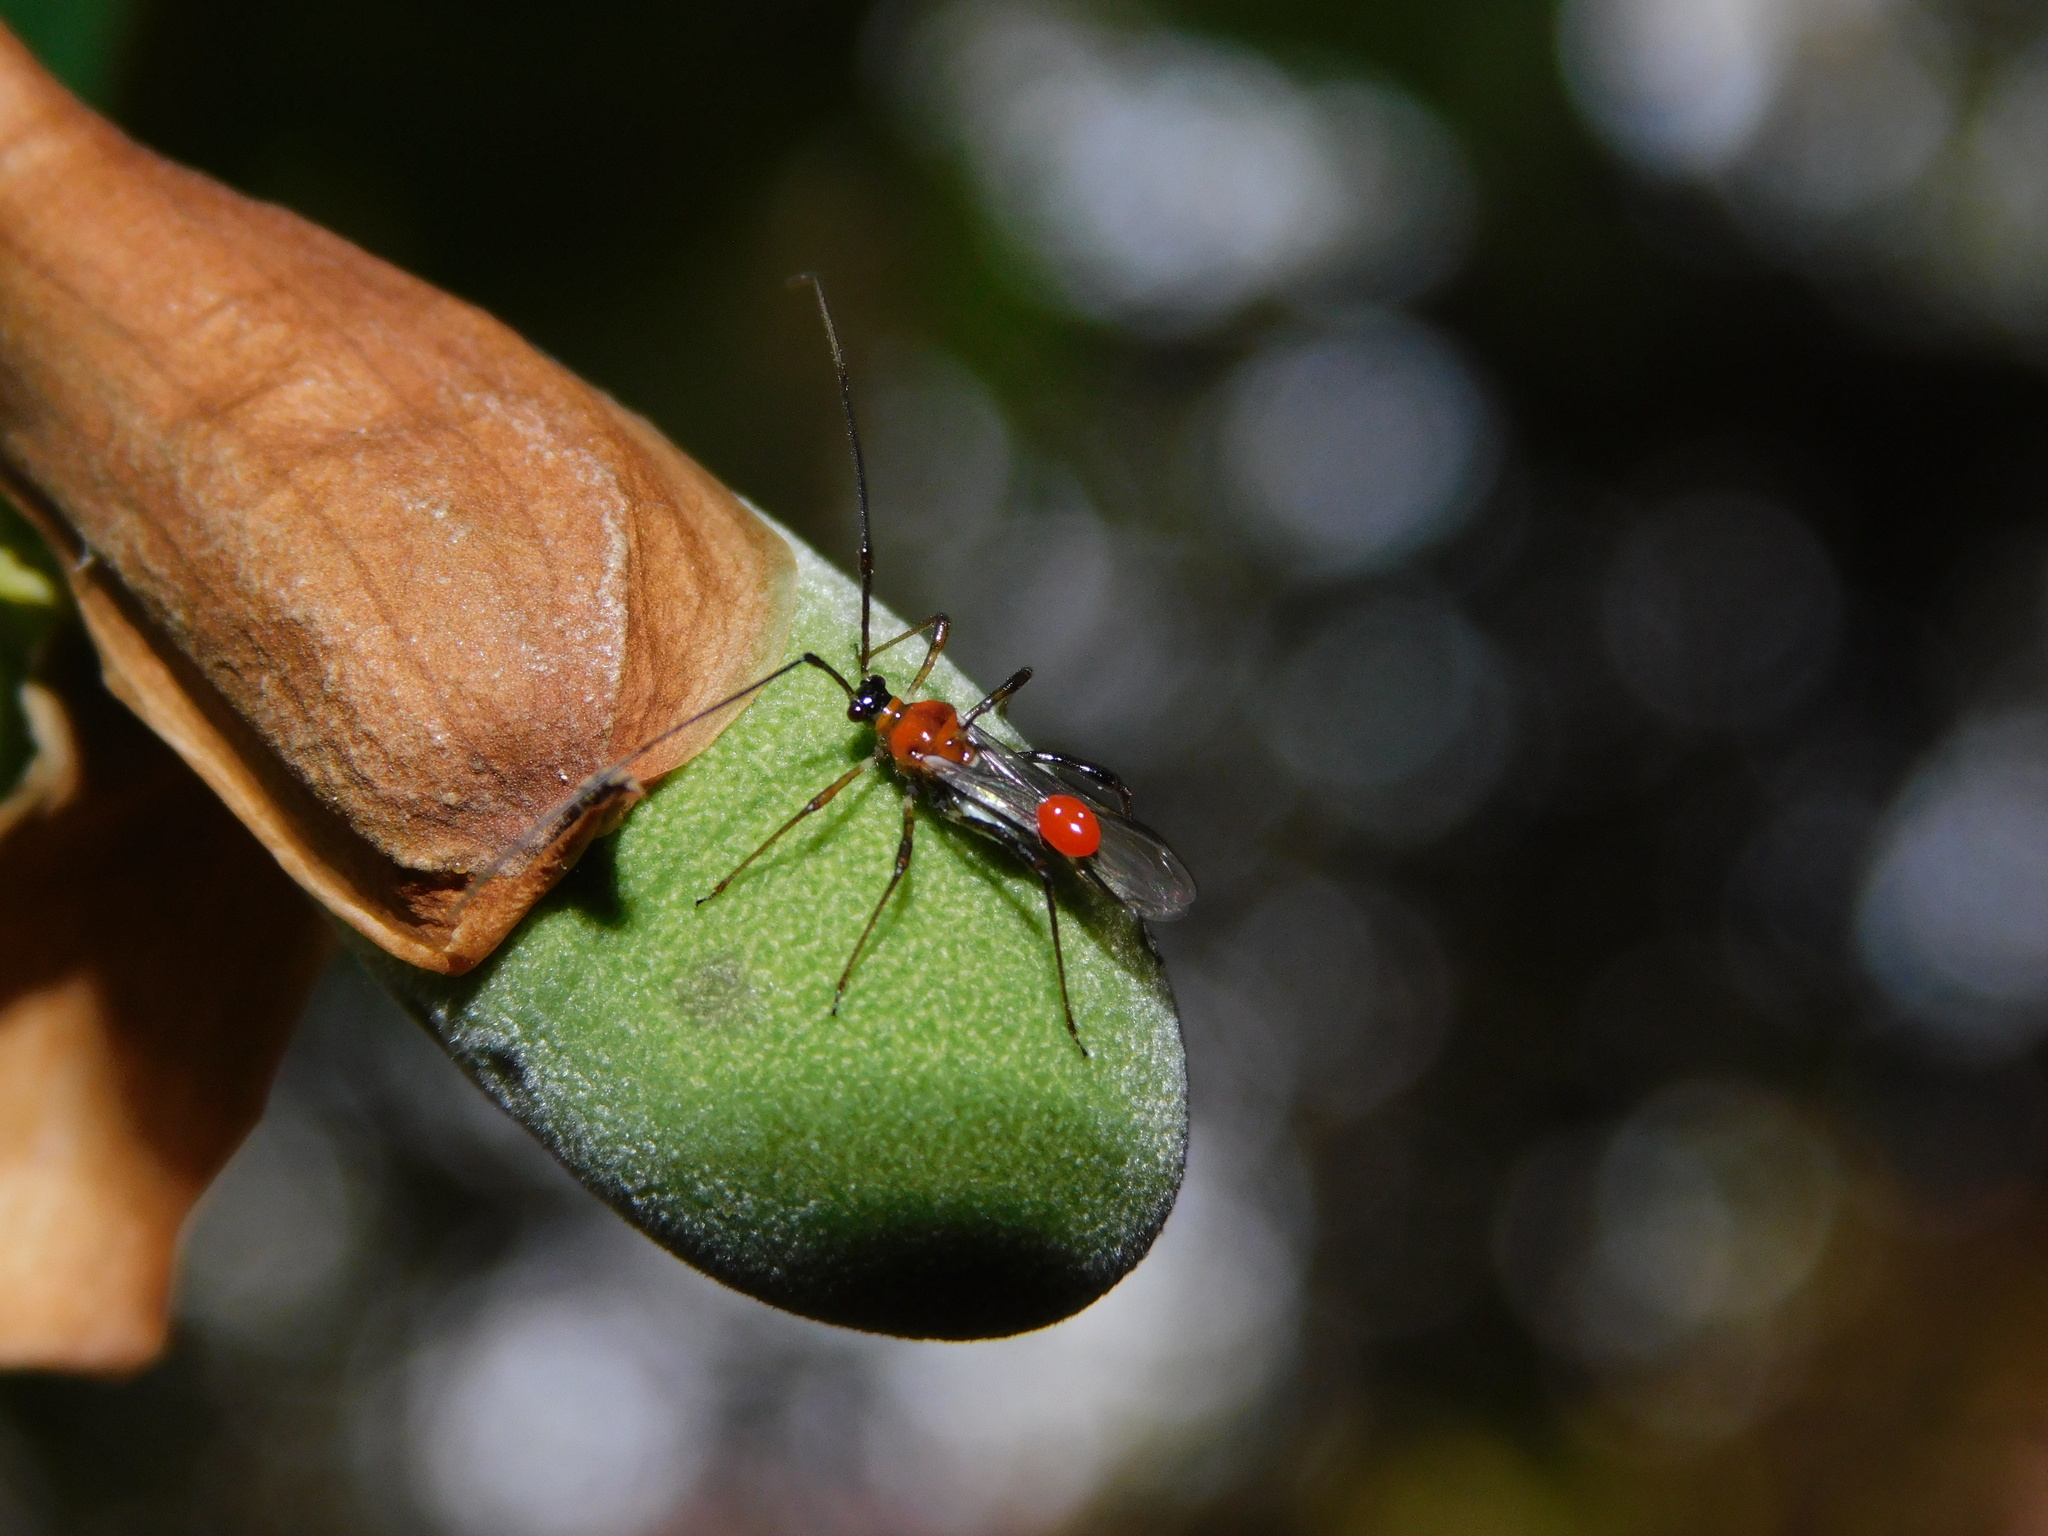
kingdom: Animalia
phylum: Arthropoda
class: Insecta
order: Hemiptera
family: Miridae
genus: Helopeltis
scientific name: Helopeltis antonii
